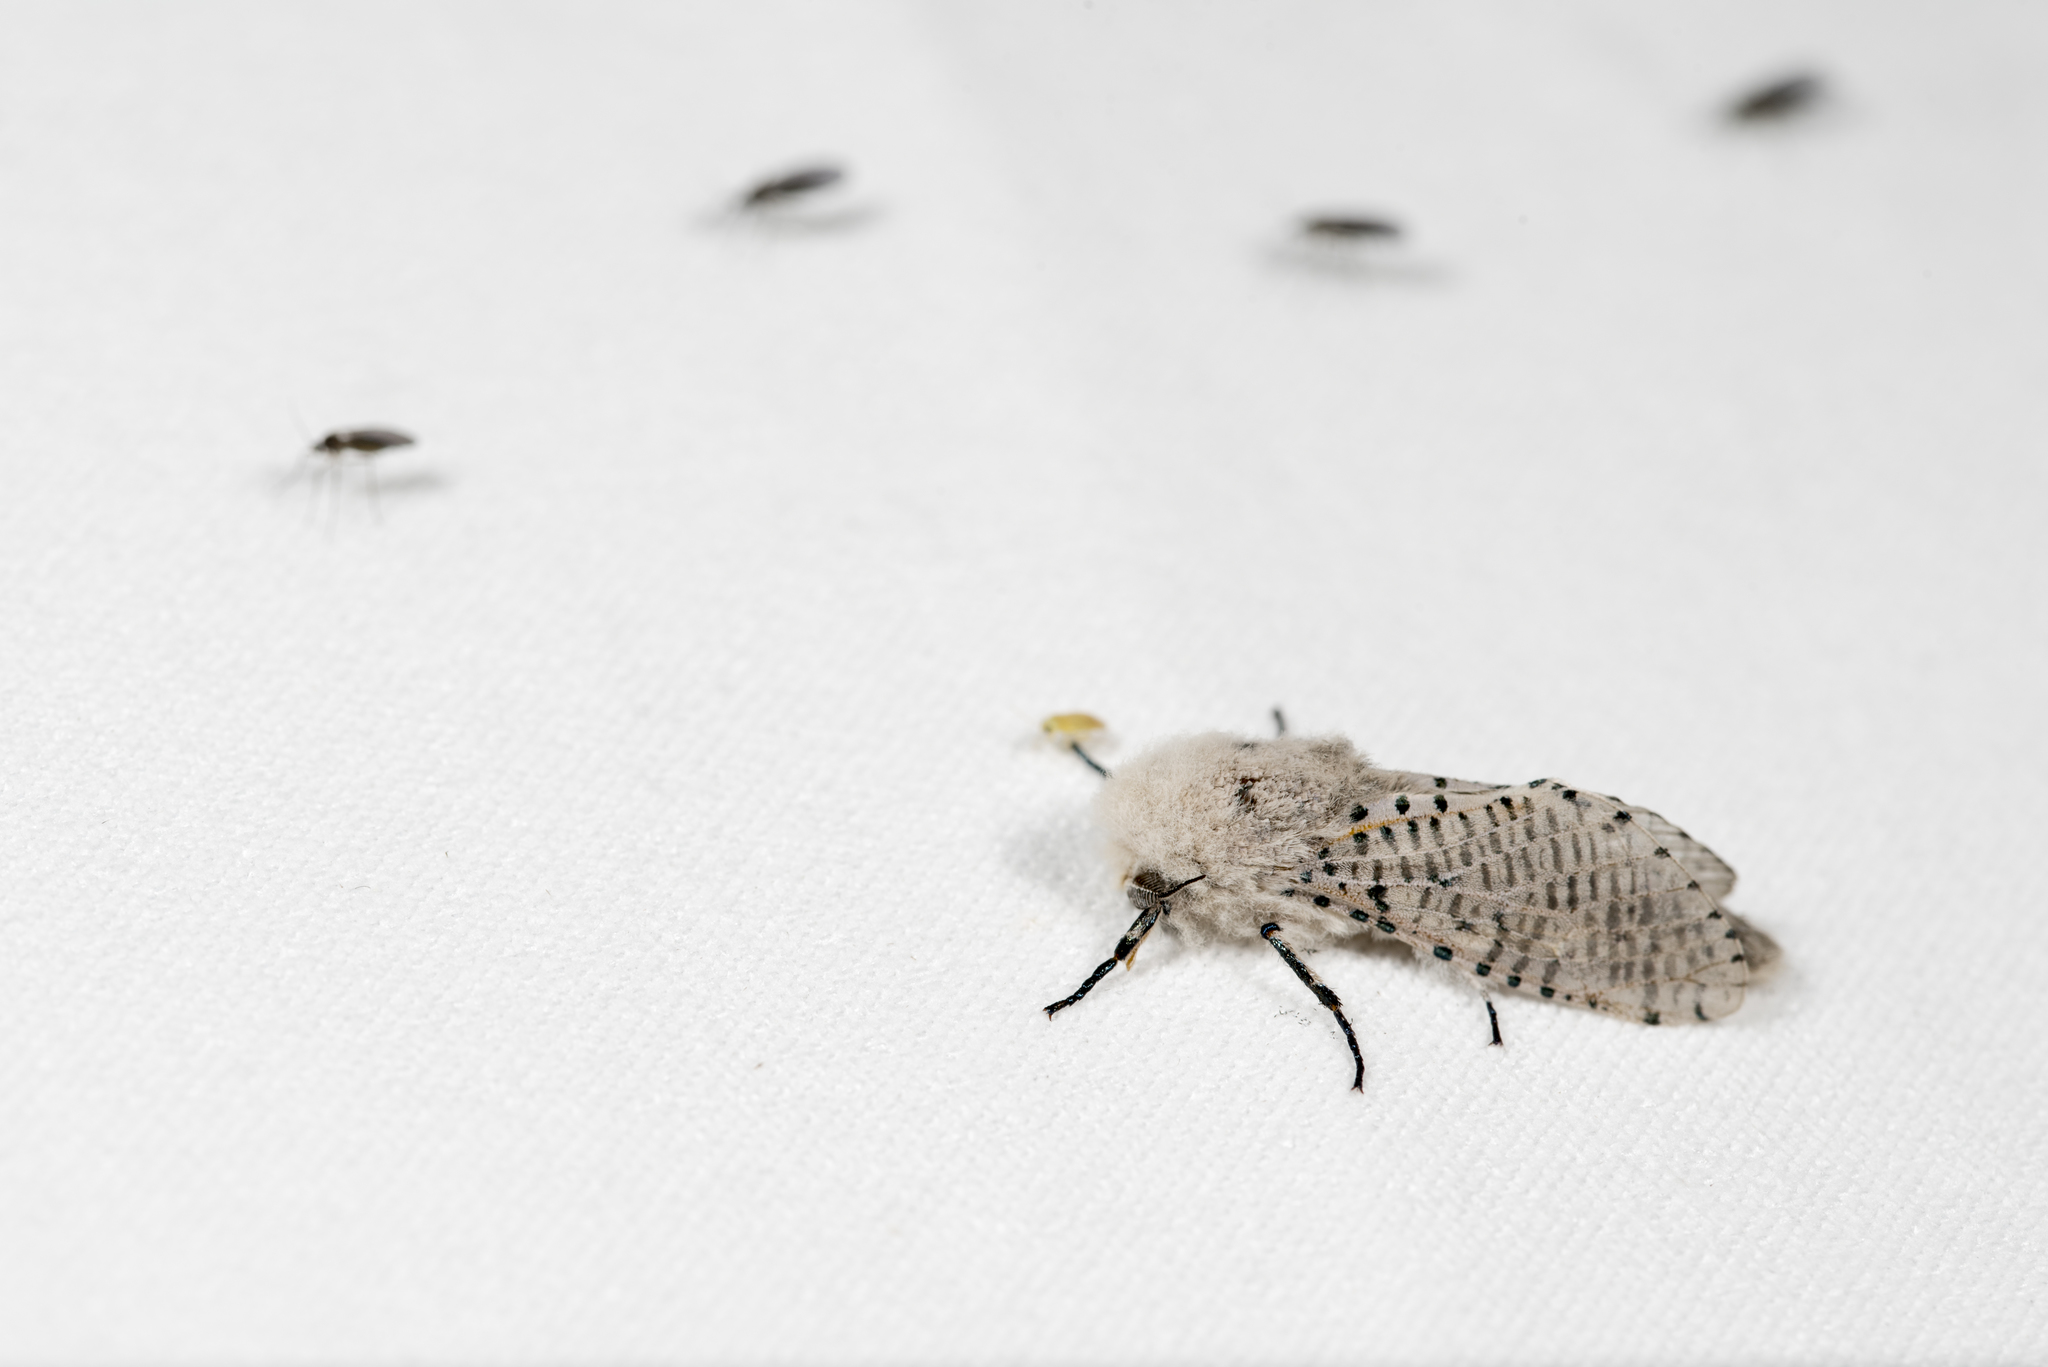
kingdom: Animalia
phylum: Arthropoda
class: Insecta
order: Lepidoptera
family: Cossidae
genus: Polyphagozerra
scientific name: Polyphagozerra coffeae
